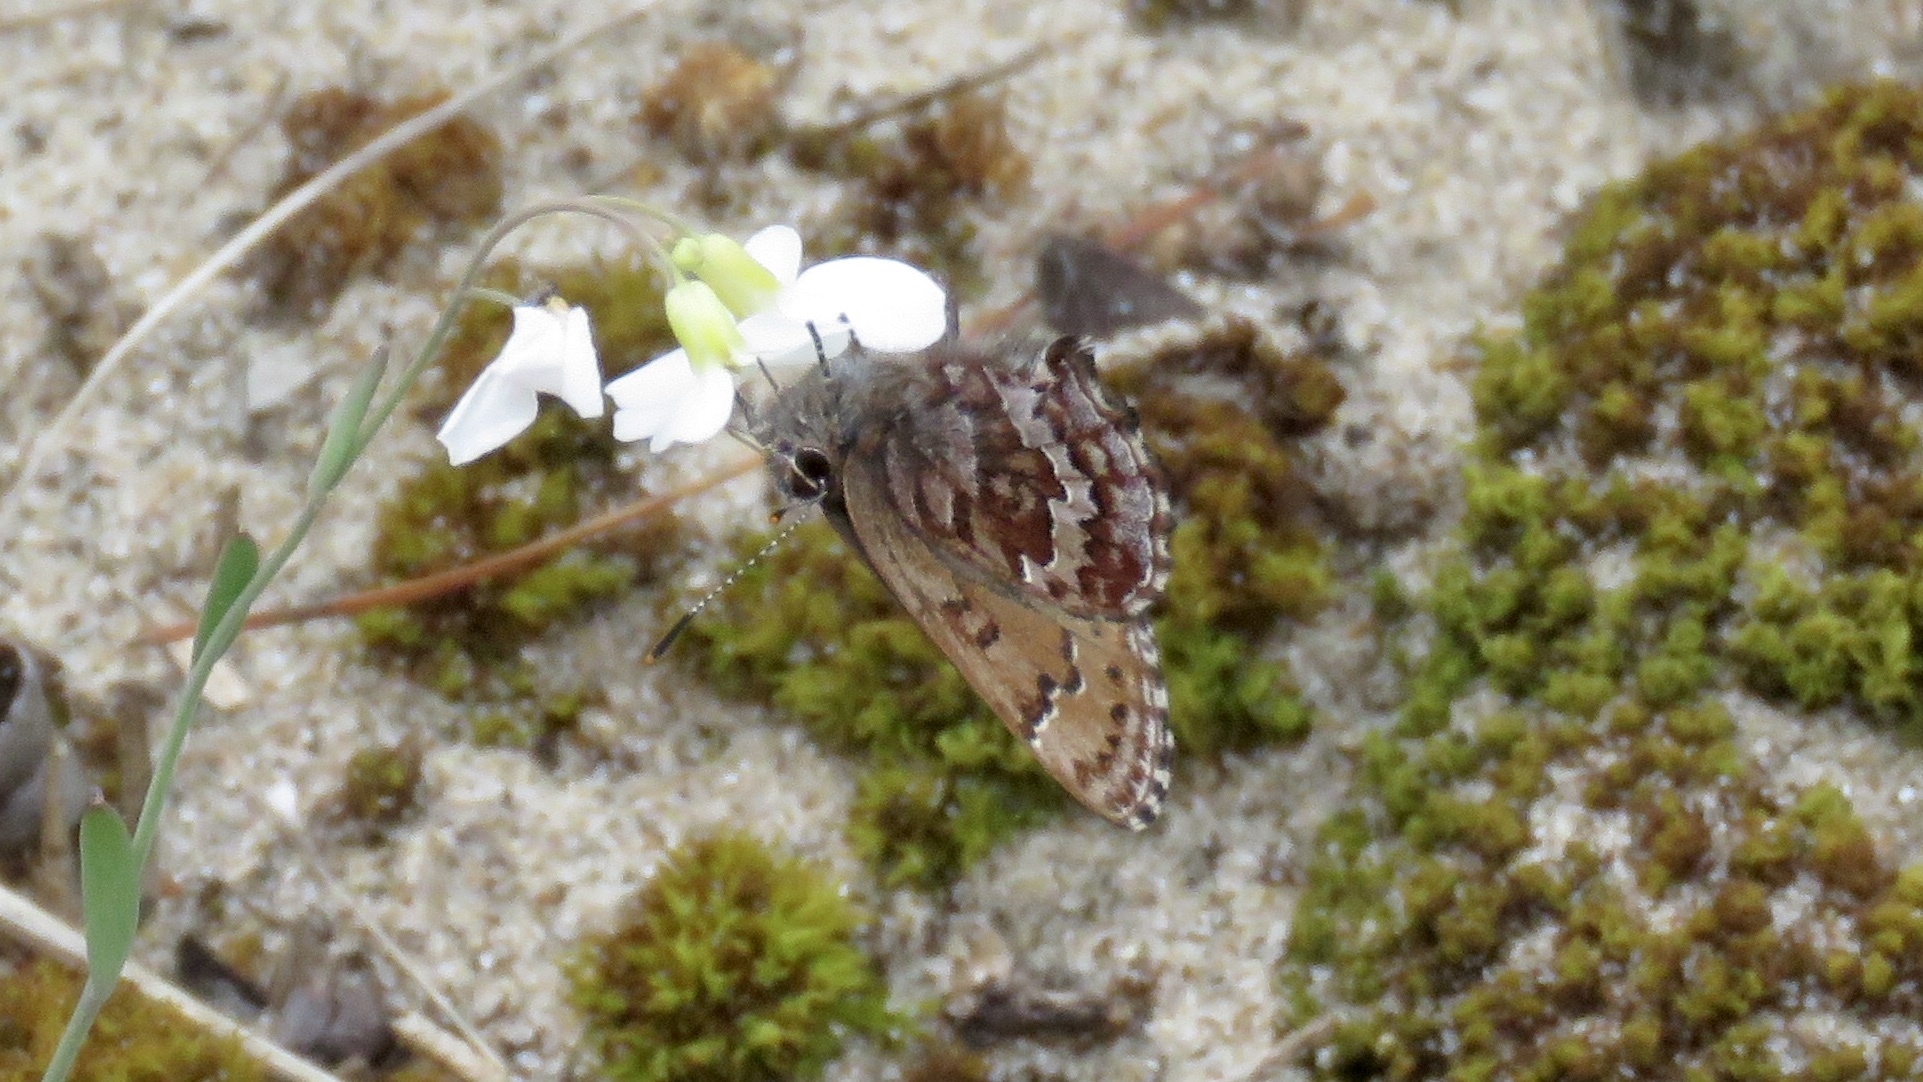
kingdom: Animalia
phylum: Arthropoda
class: Insecta
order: Lepidoptera
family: Lycaenidae
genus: Incisalia
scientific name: Incisalia niphon
